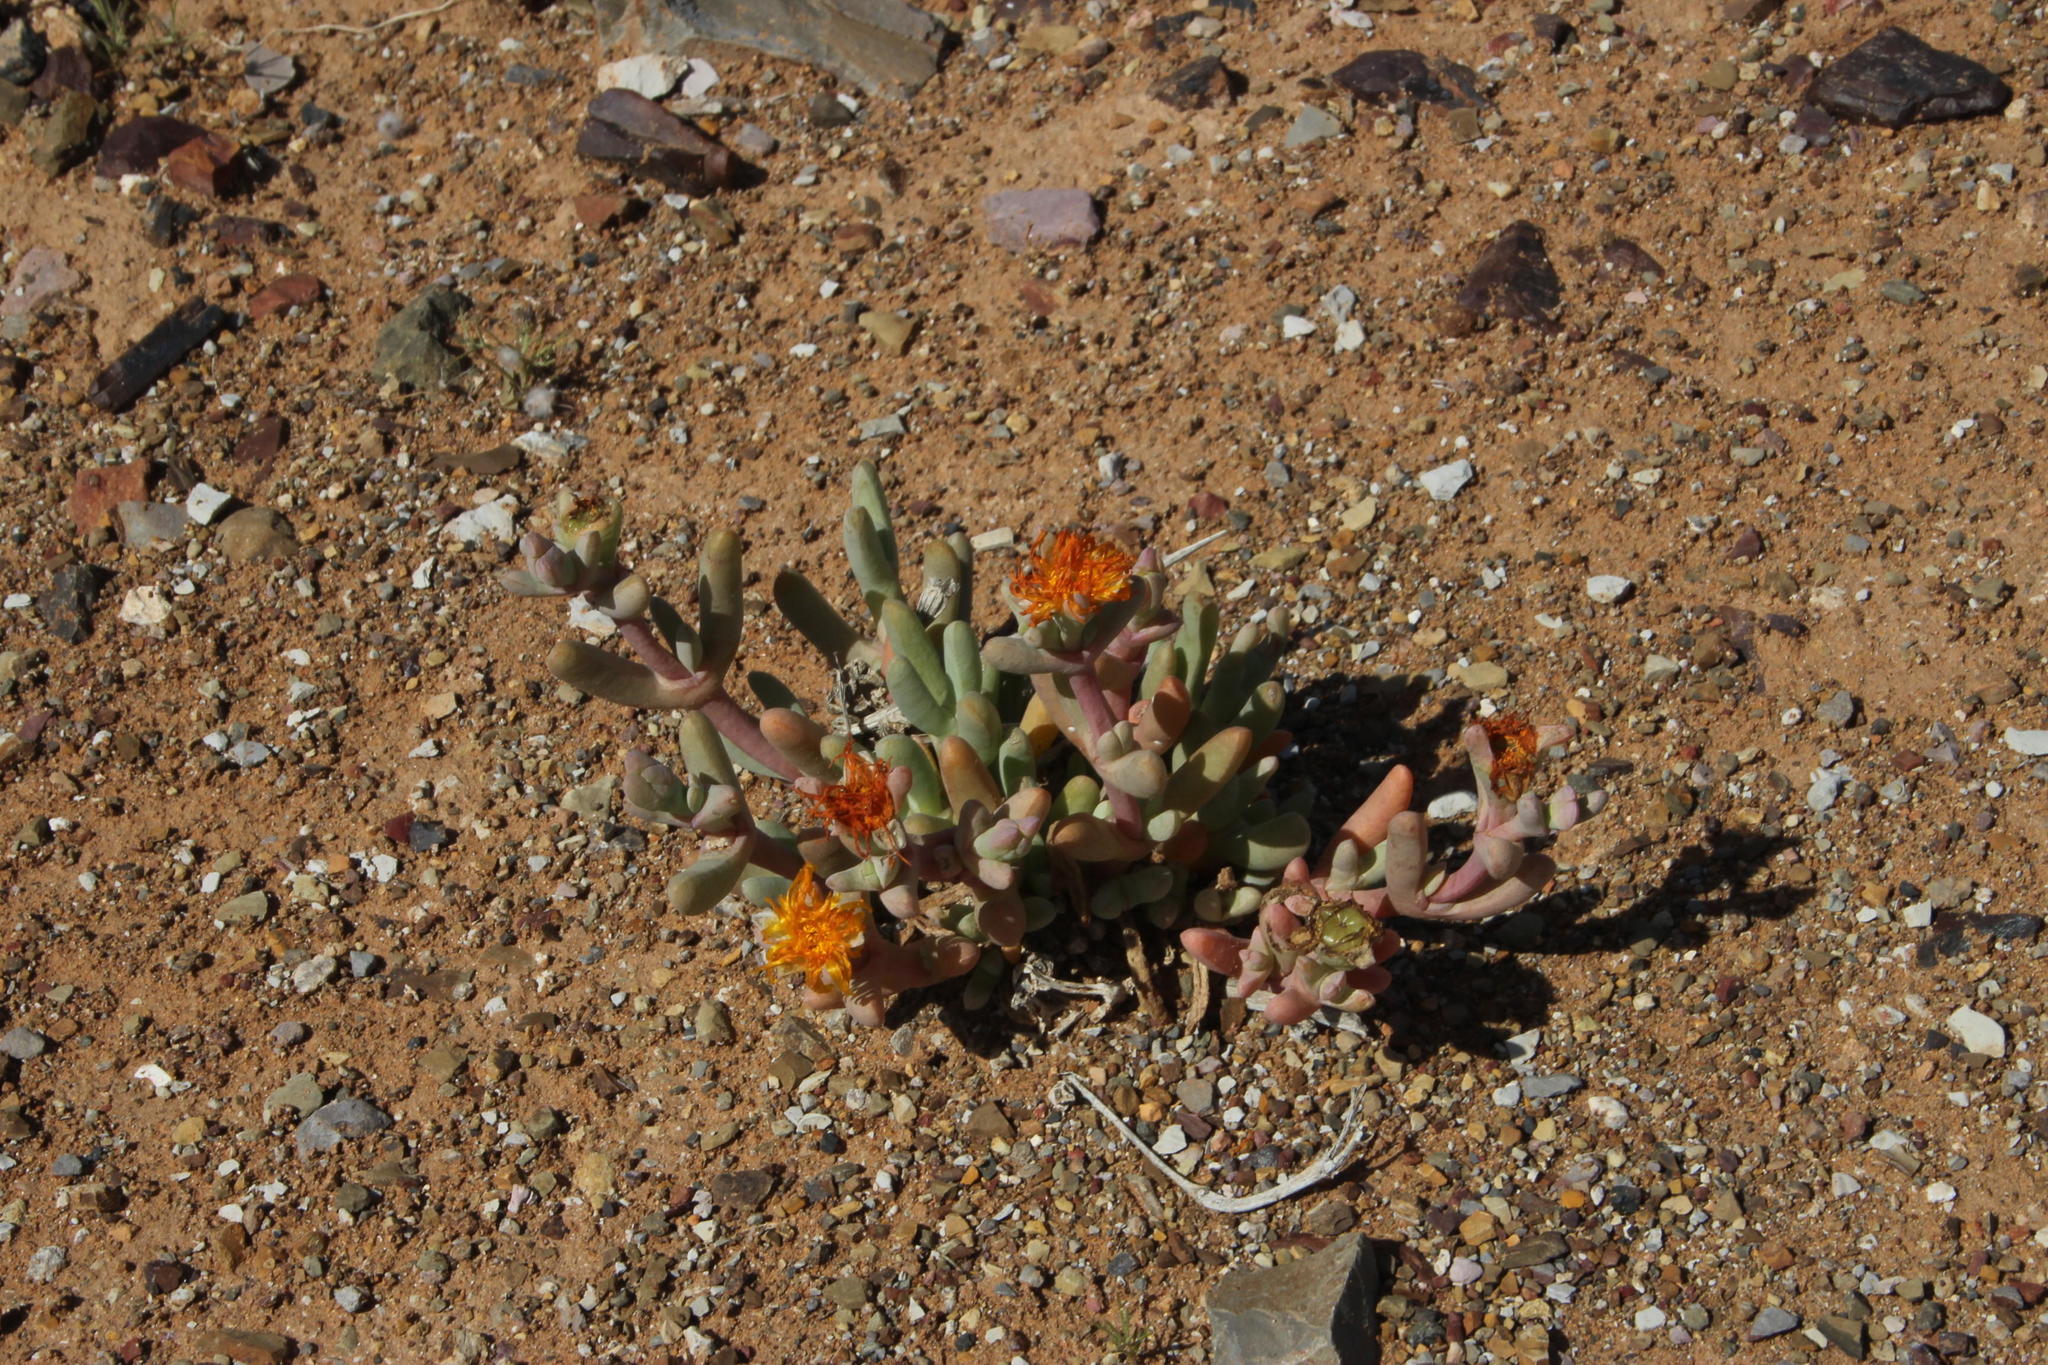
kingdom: Plantae
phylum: Tracheophyta
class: Magnoliopsida
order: Caryophyllales
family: Aizoaceae
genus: Malephora
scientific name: Malephora crassa
